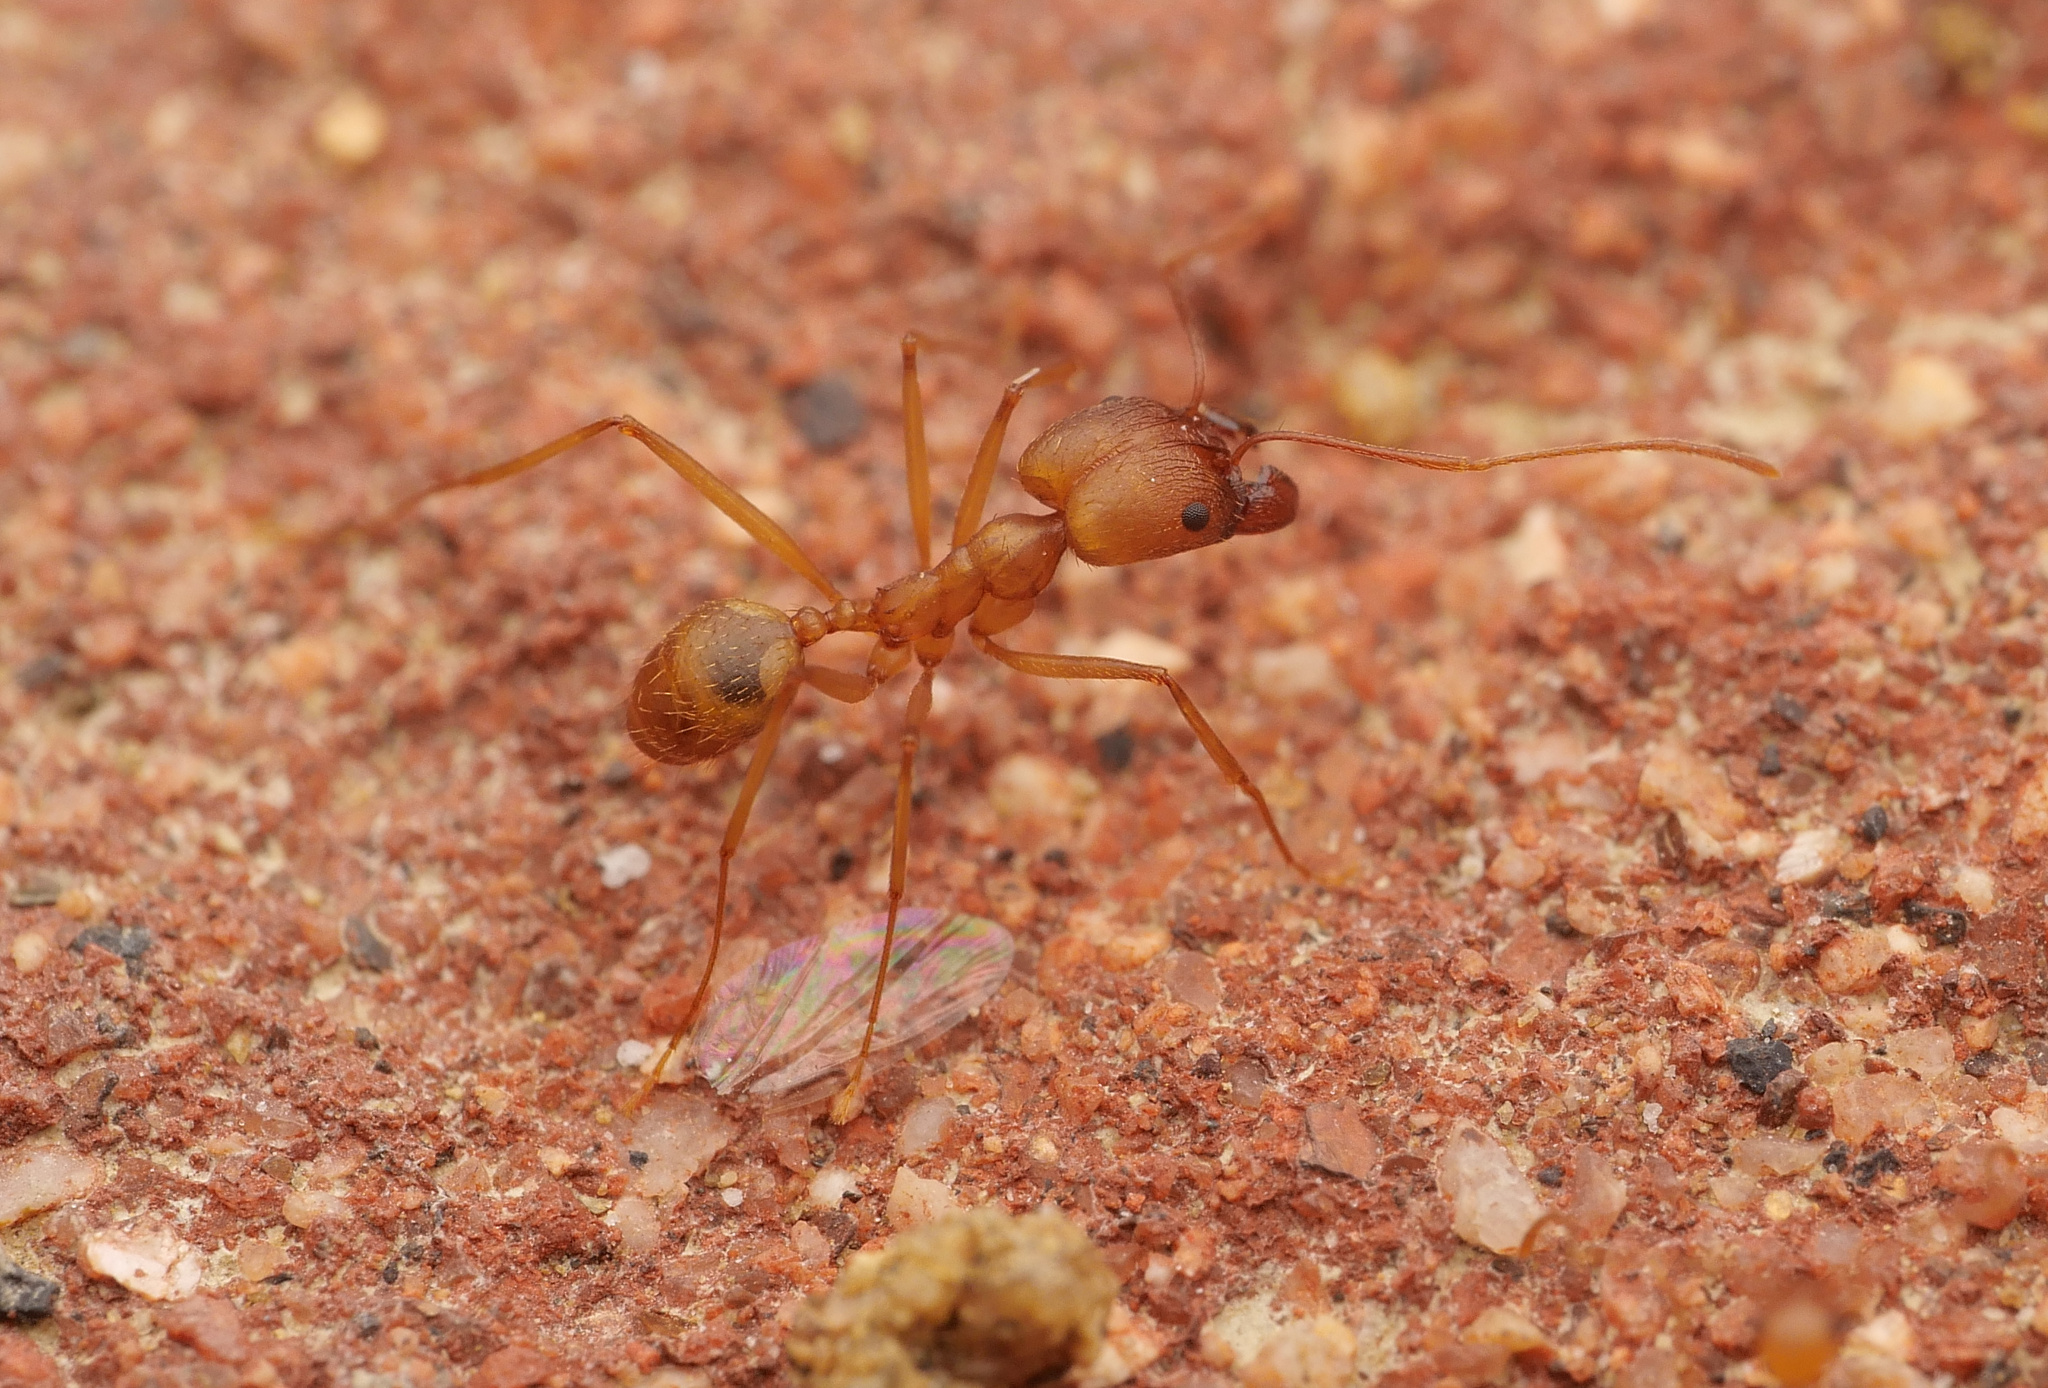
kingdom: Animalia
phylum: Arthropoda
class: Insecta
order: Hymenoptera
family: Formicidae
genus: Pheidole
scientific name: Pheidole vistana
